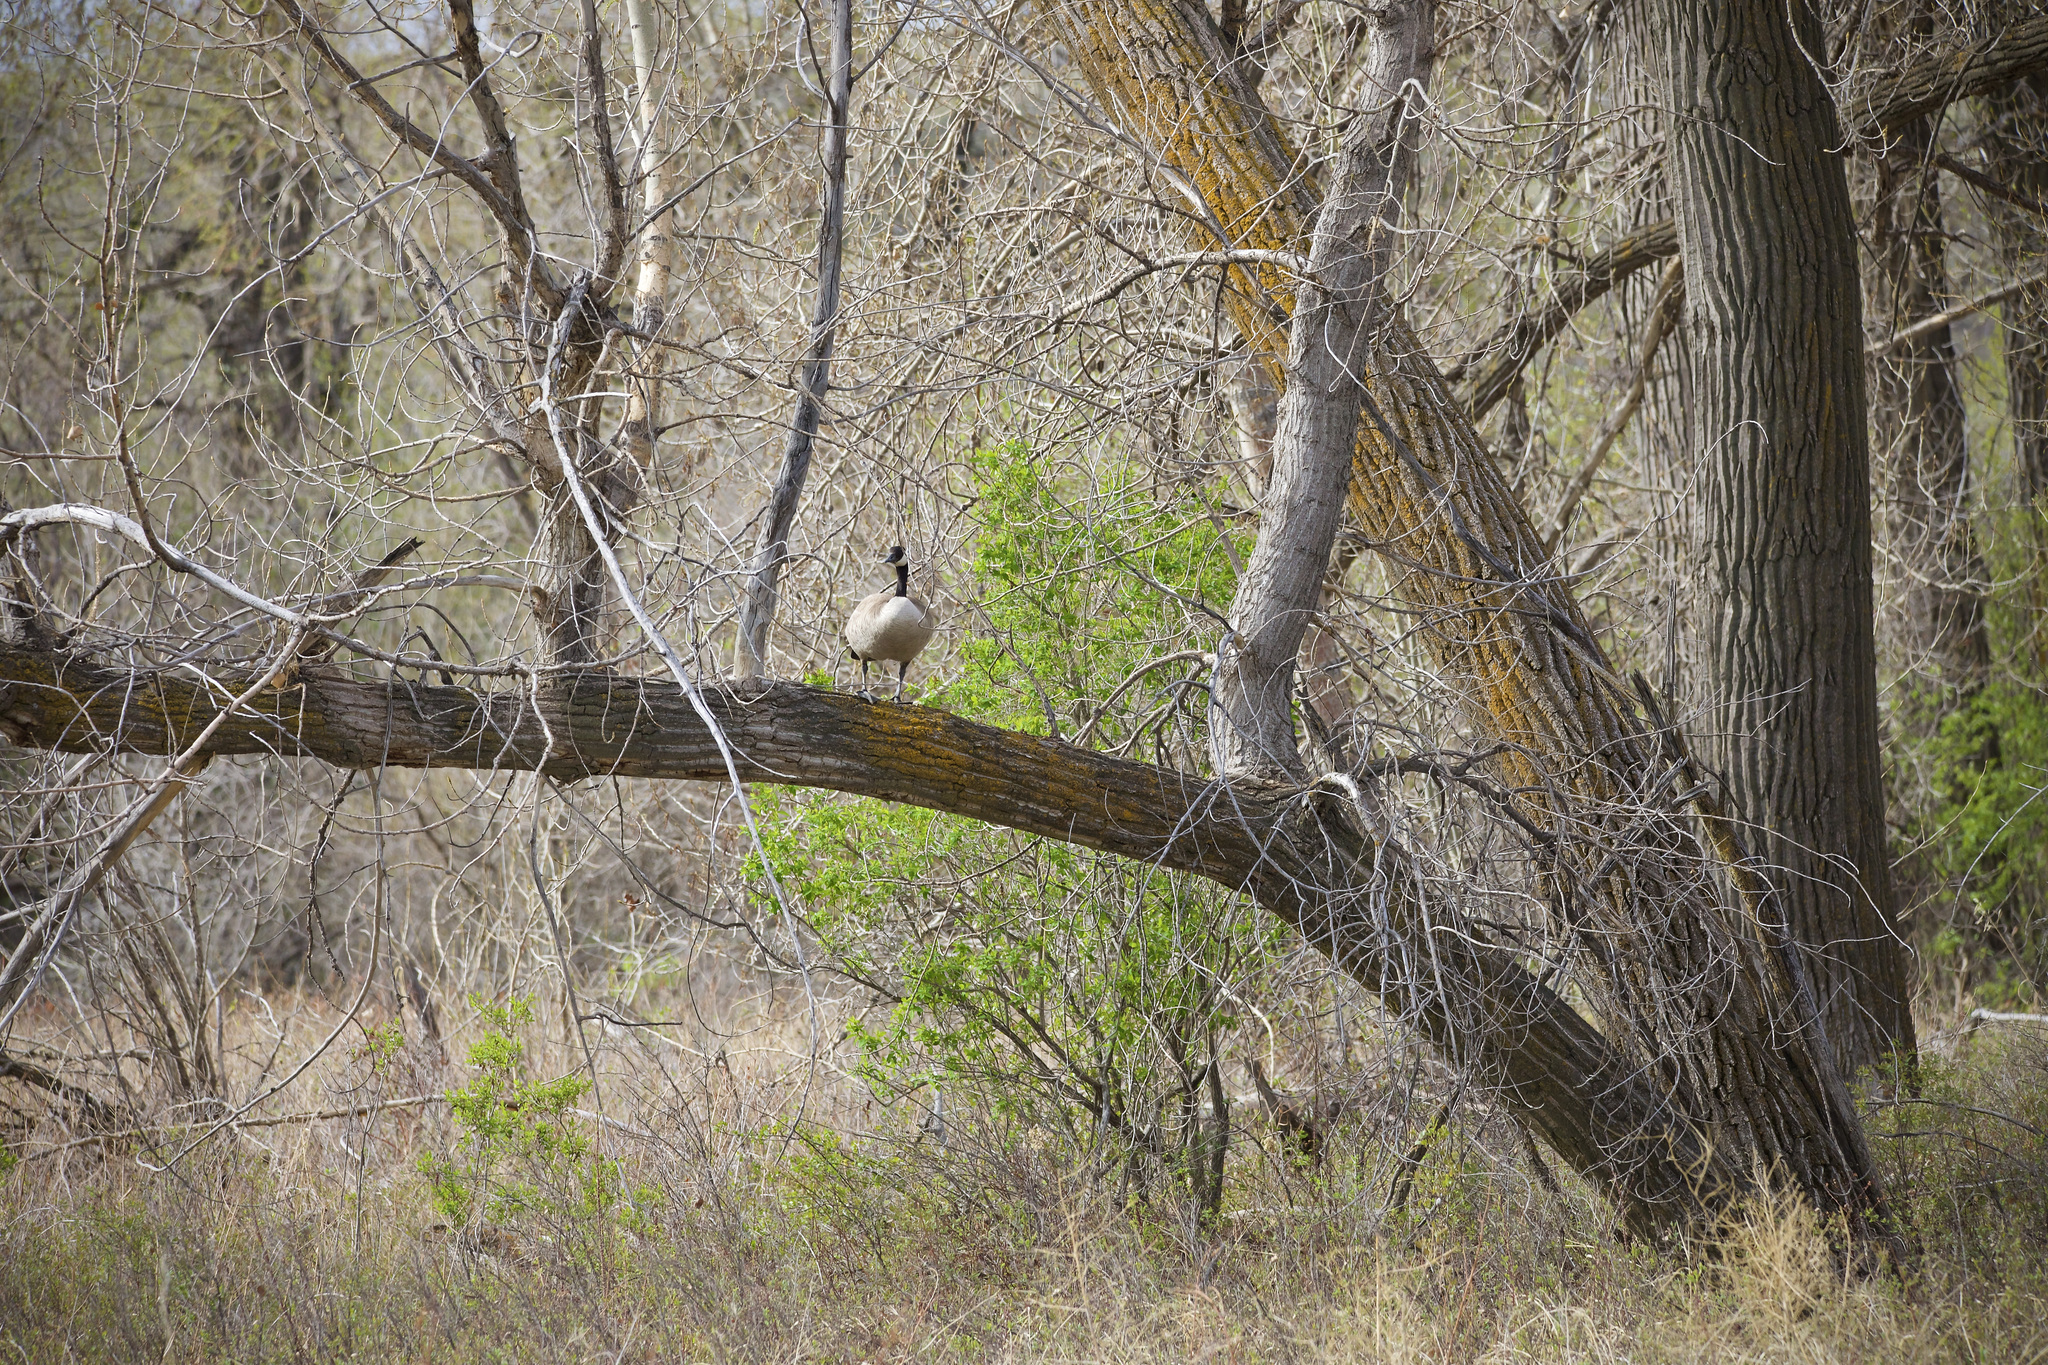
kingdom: Animalia
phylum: Chordata
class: Aves
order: Anseriformes
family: Anatidae
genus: Branta
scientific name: Branta canadensis
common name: Canada goose
